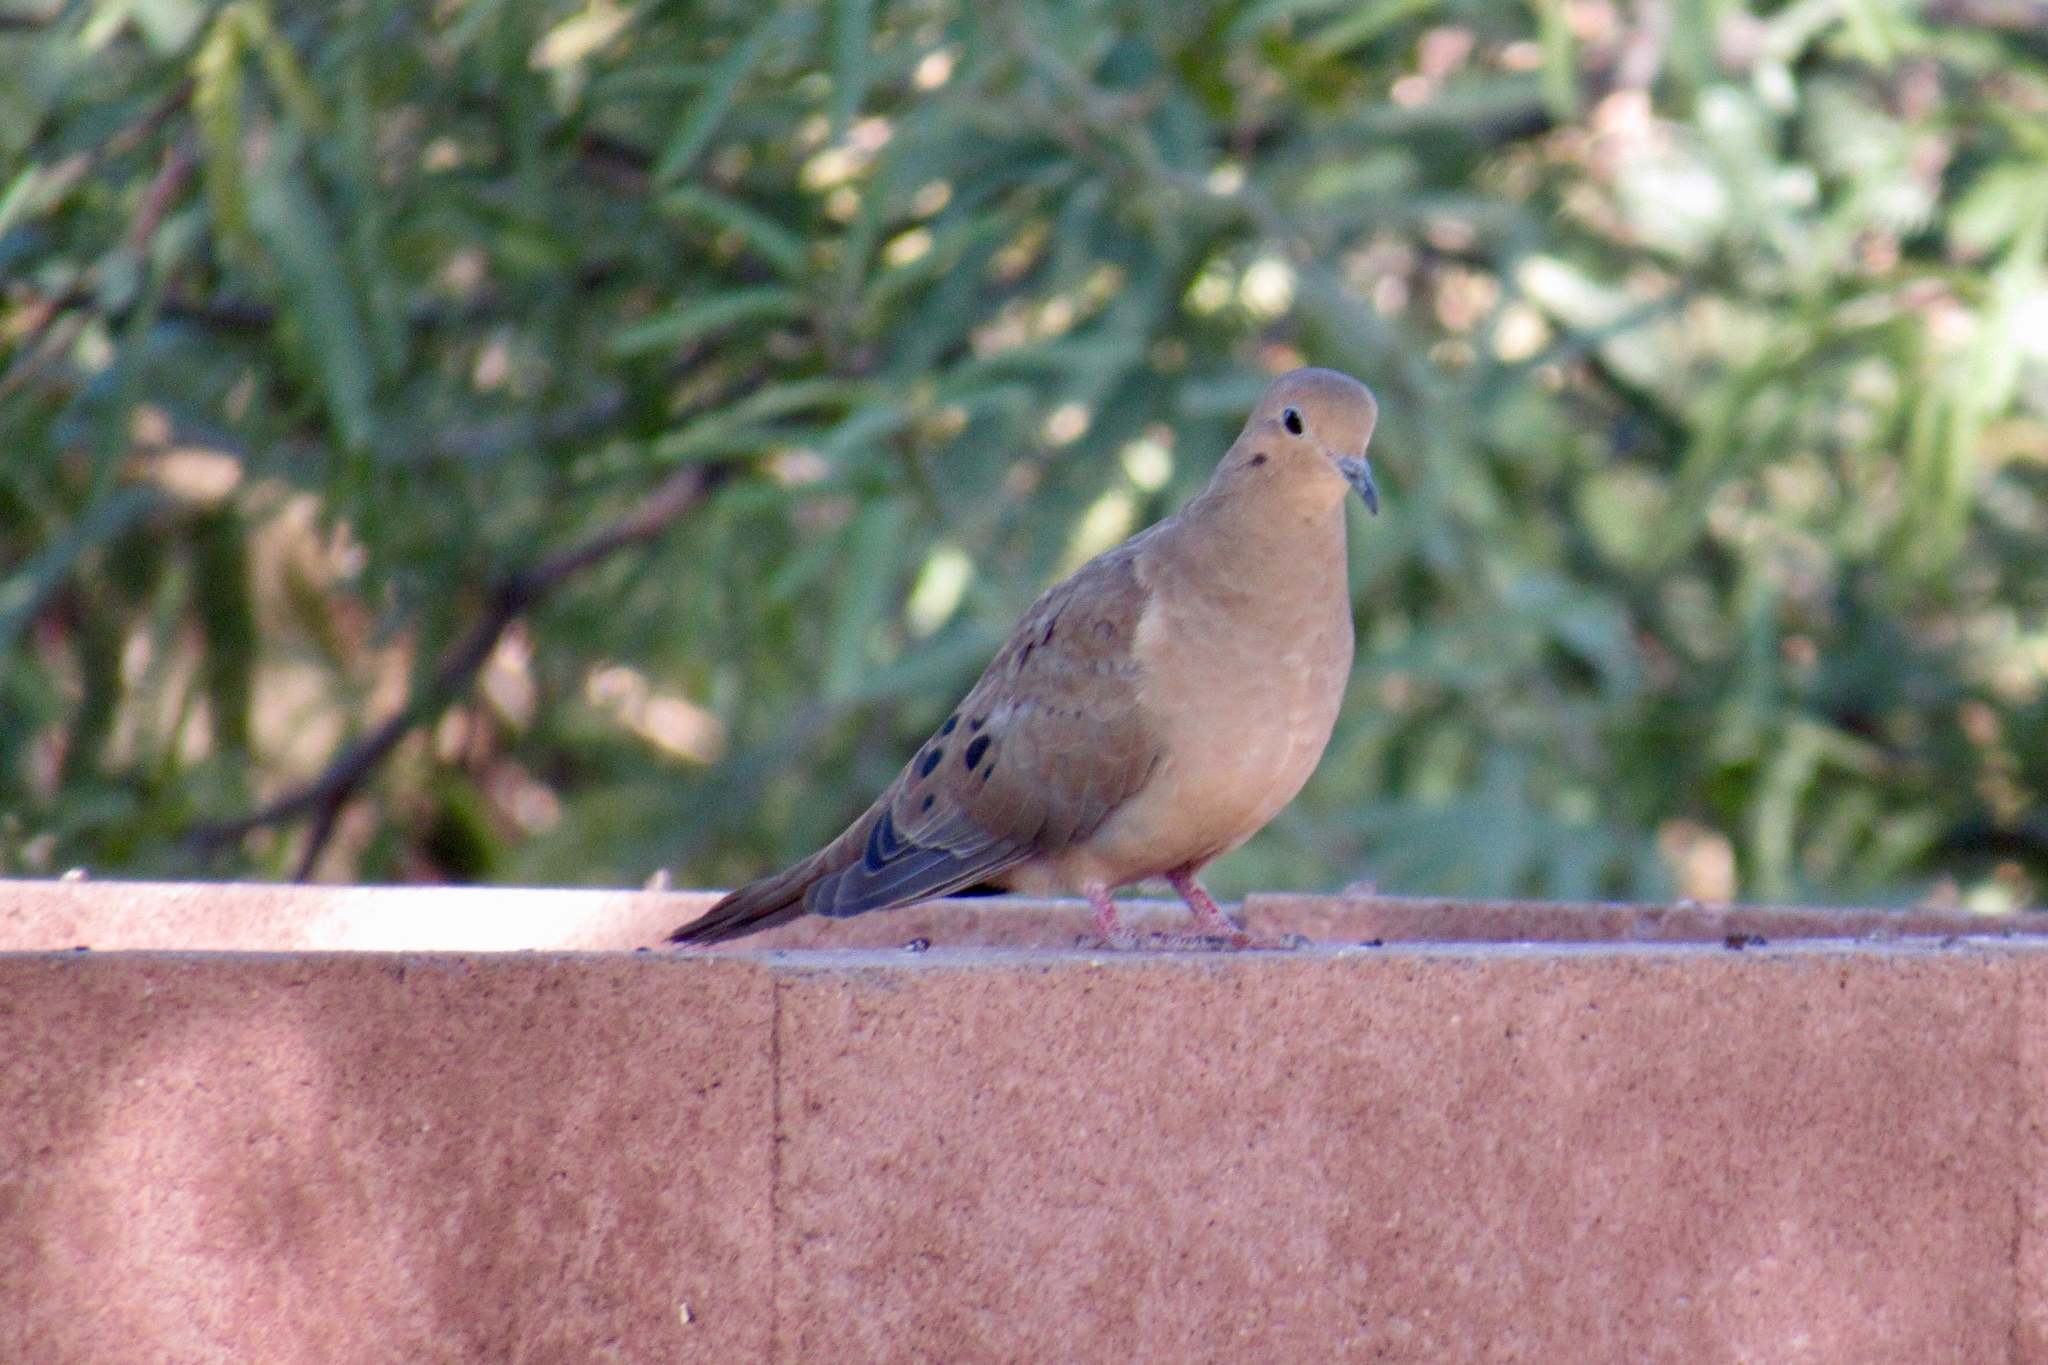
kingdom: Animalia
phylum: Chordata
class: Aves
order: Columbiformes
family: Columbidae
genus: Zenaida
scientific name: Zenaida macroura
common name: Mourning dove
